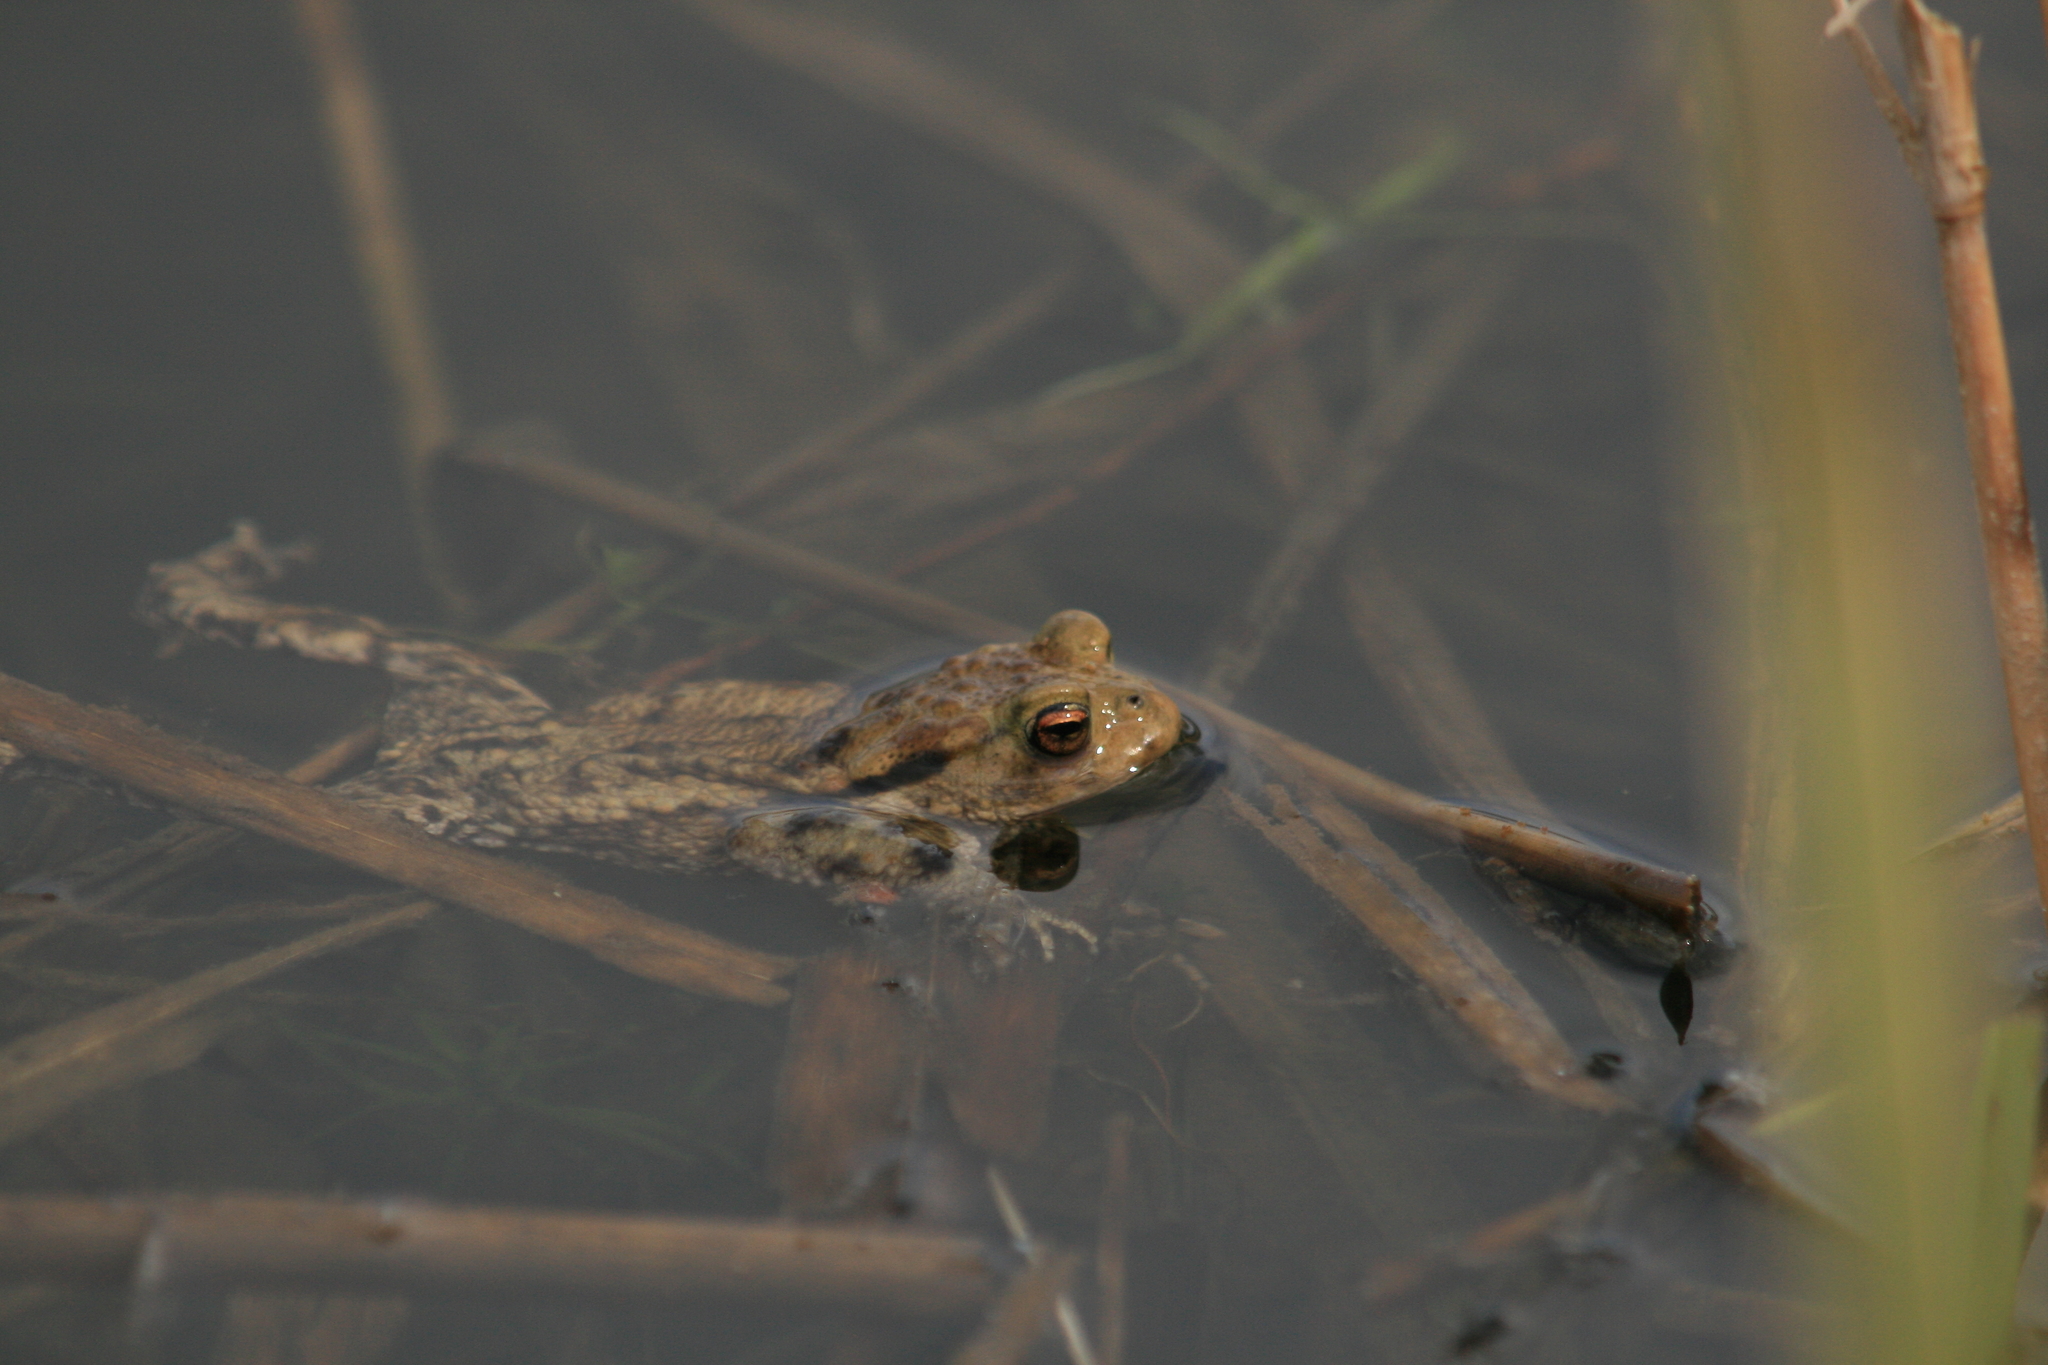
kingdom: Animalia
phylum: Chordata
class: Amphibia
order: Anura
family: Bufonidae
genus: Bufo
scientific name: Bufo bufo
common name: Common toad
